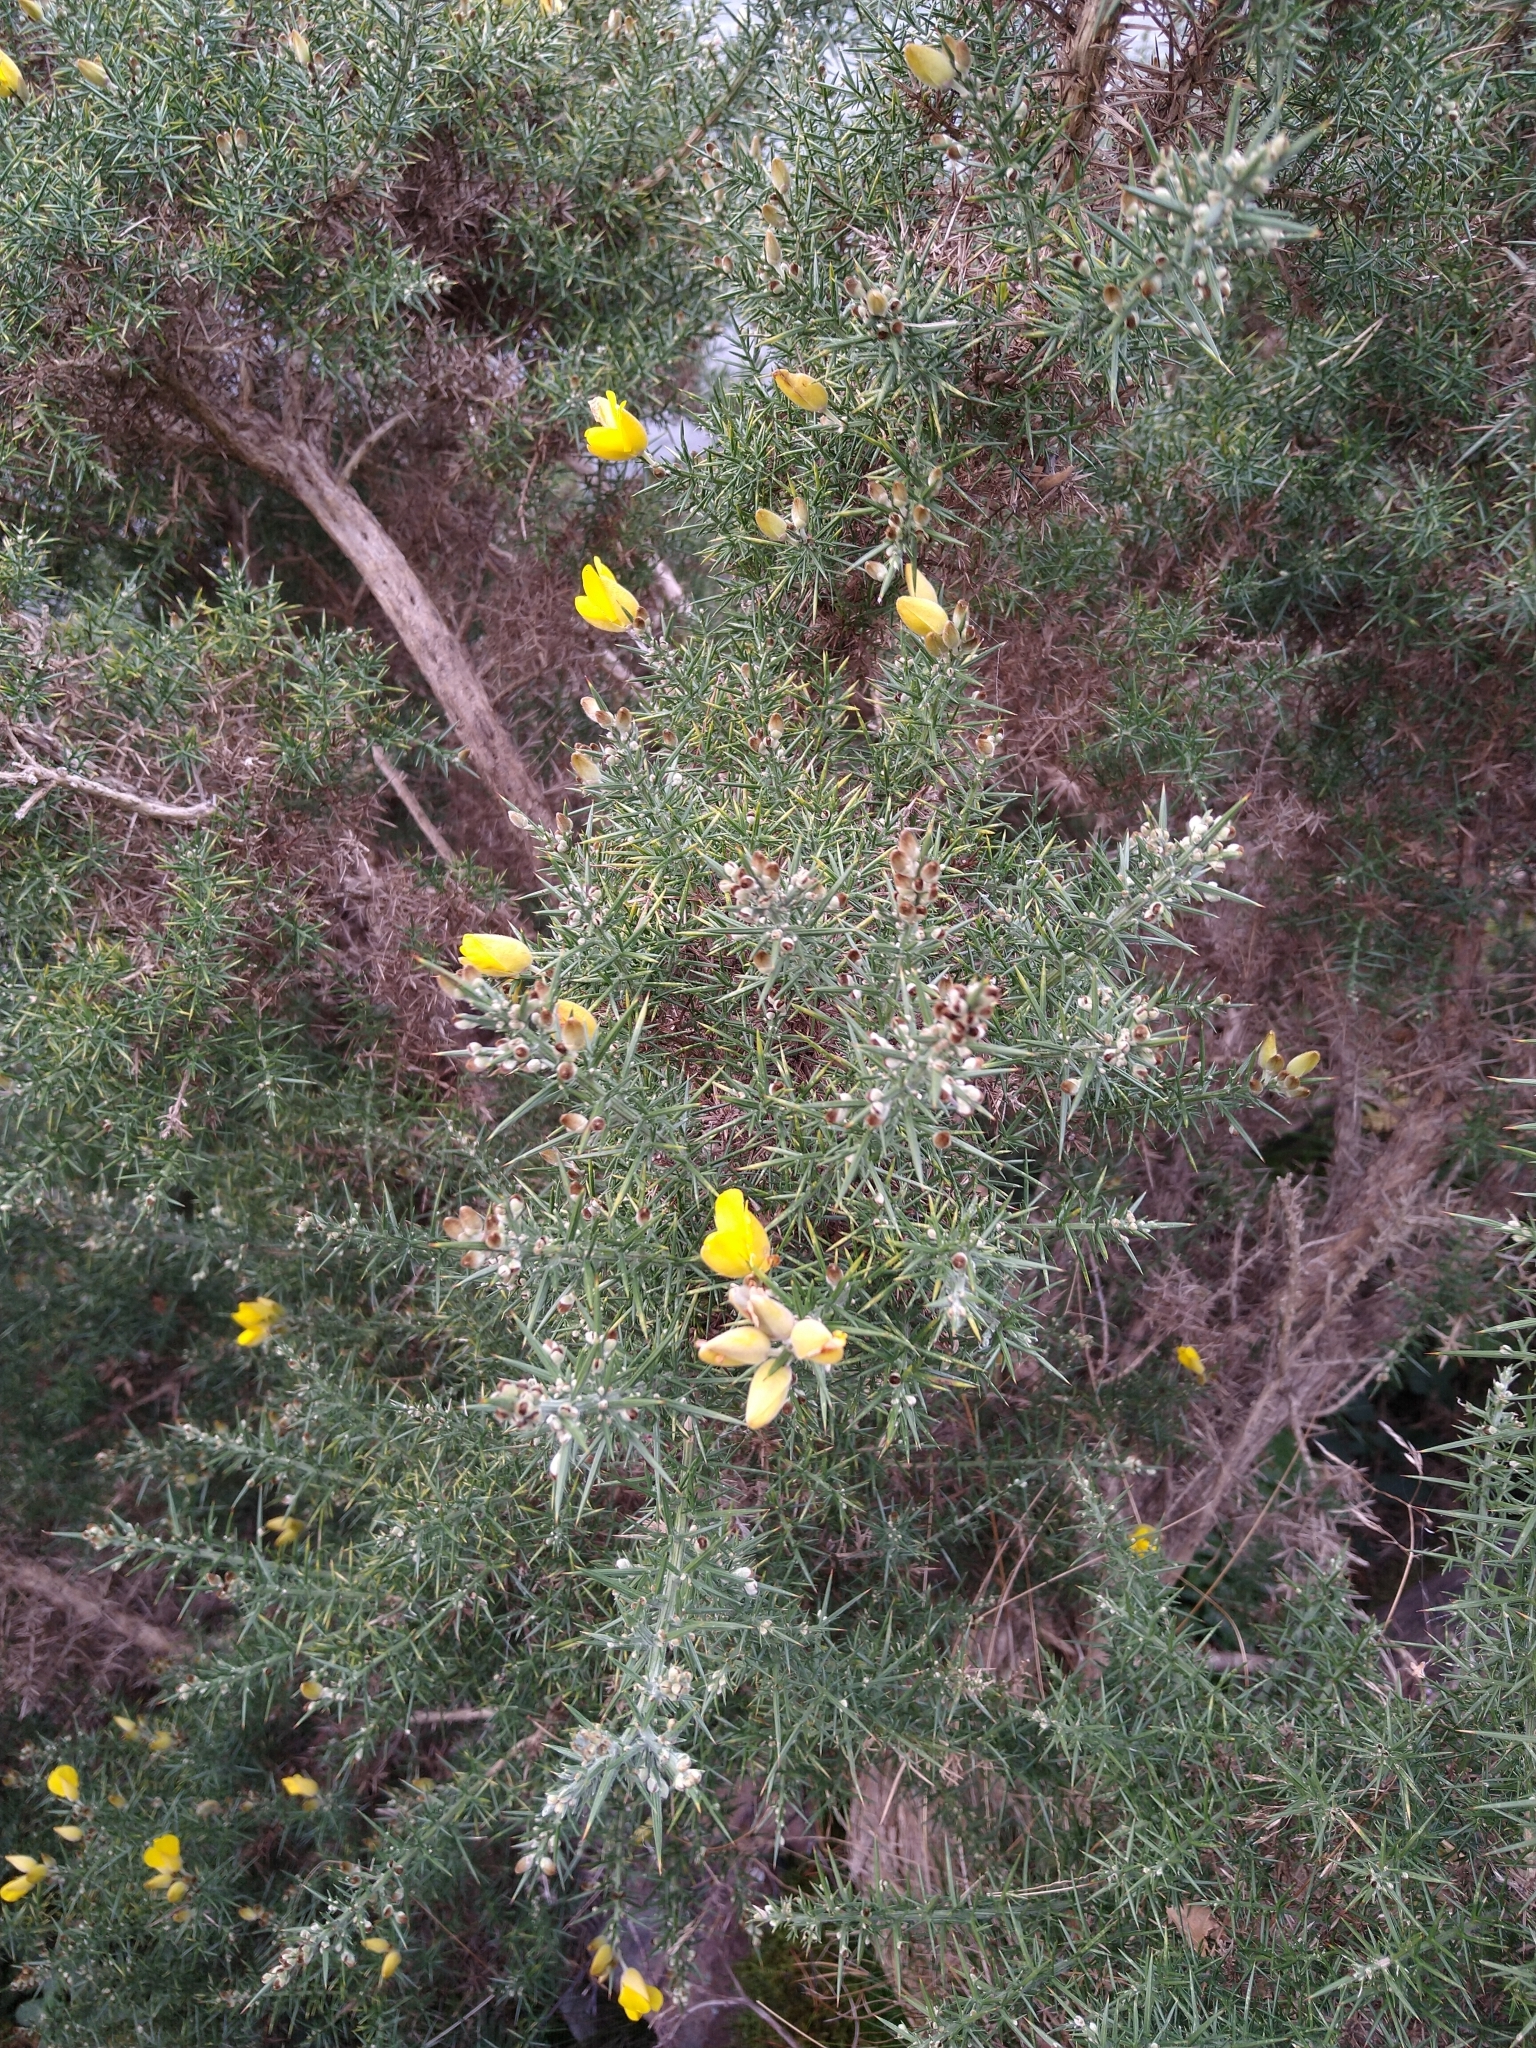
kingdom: Plantae
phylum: Tracheophyta
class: Magnoliopsida
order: Fabales
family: Fabaceae
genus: Ulex
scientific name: Ulex europaeus
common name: Common gorse
